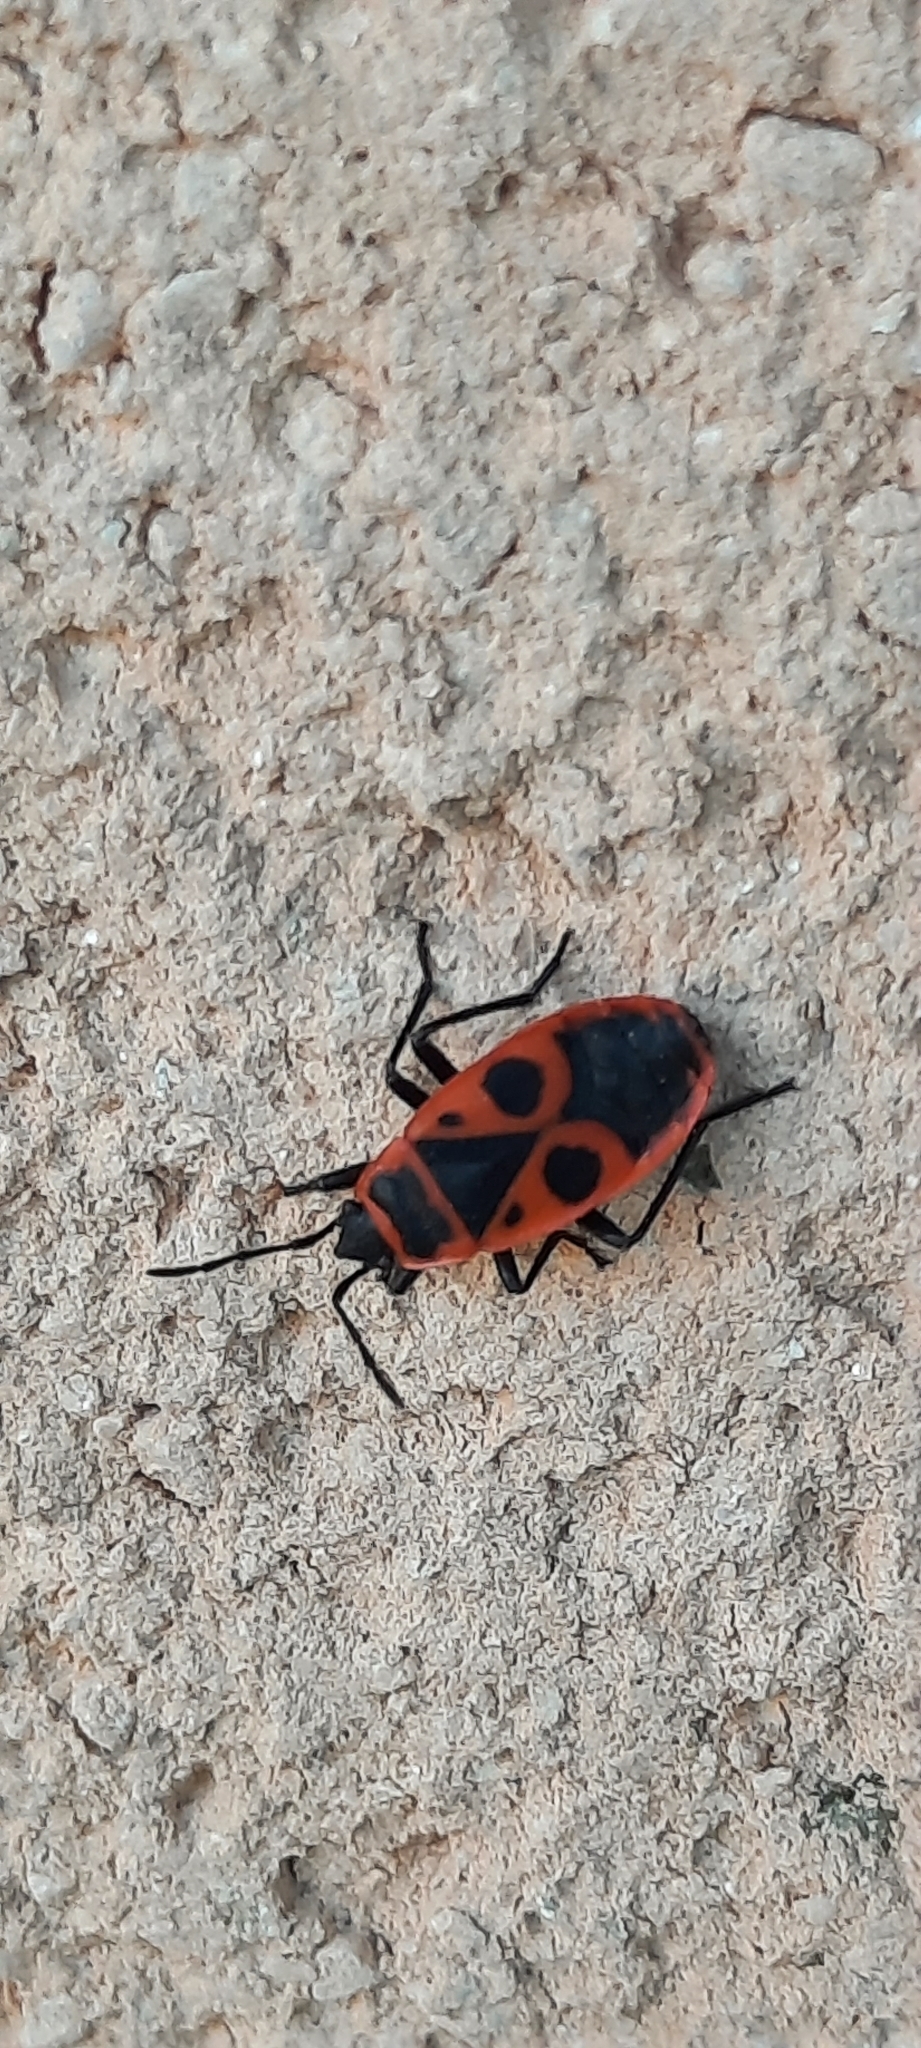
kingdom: Animalia
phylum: Arthropoda
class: Insecta
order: Hemiptera
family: Pyrrhocoridae
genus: Pyrrhocoris
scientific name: Pyrrhocoris apterus
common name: Firebug
